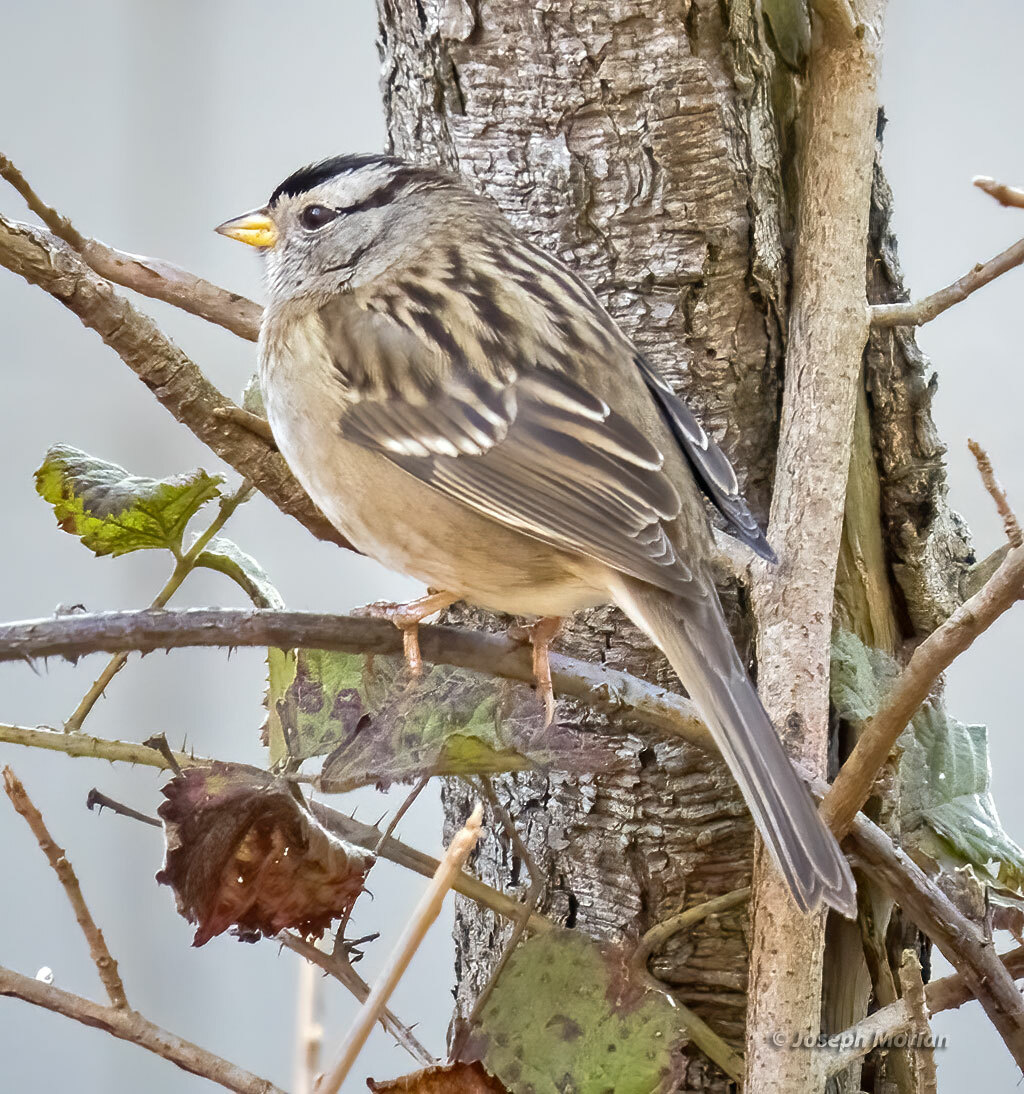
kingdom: Animalia
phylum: Chordata
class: Aves
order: Passeriformes
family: Passerellidae
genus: Zonotrichia
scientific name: Zonotrichia leucophrys
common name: White-crowned sparrow
